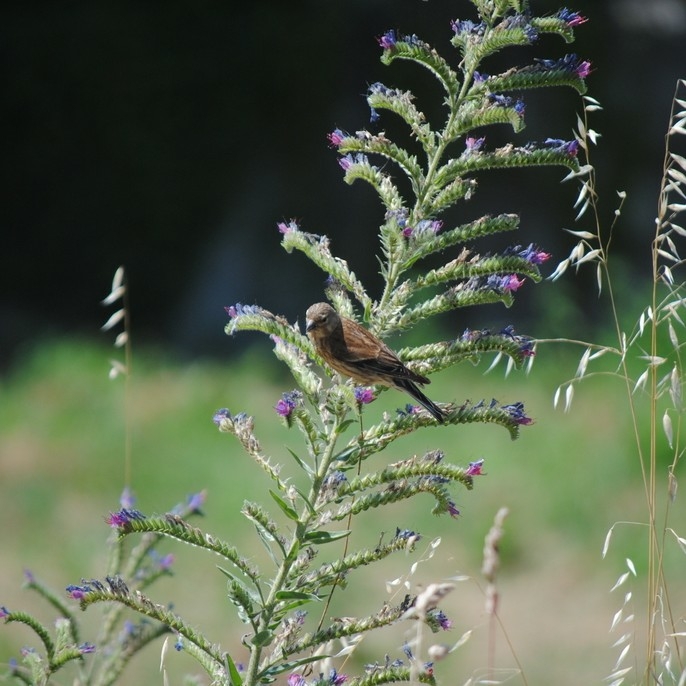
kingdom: Animalia
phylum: Chordata
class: Aves
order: Passeriformes
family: Fringillidae
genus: Linaria
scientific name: Linaria cannabina
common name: Common linnet
